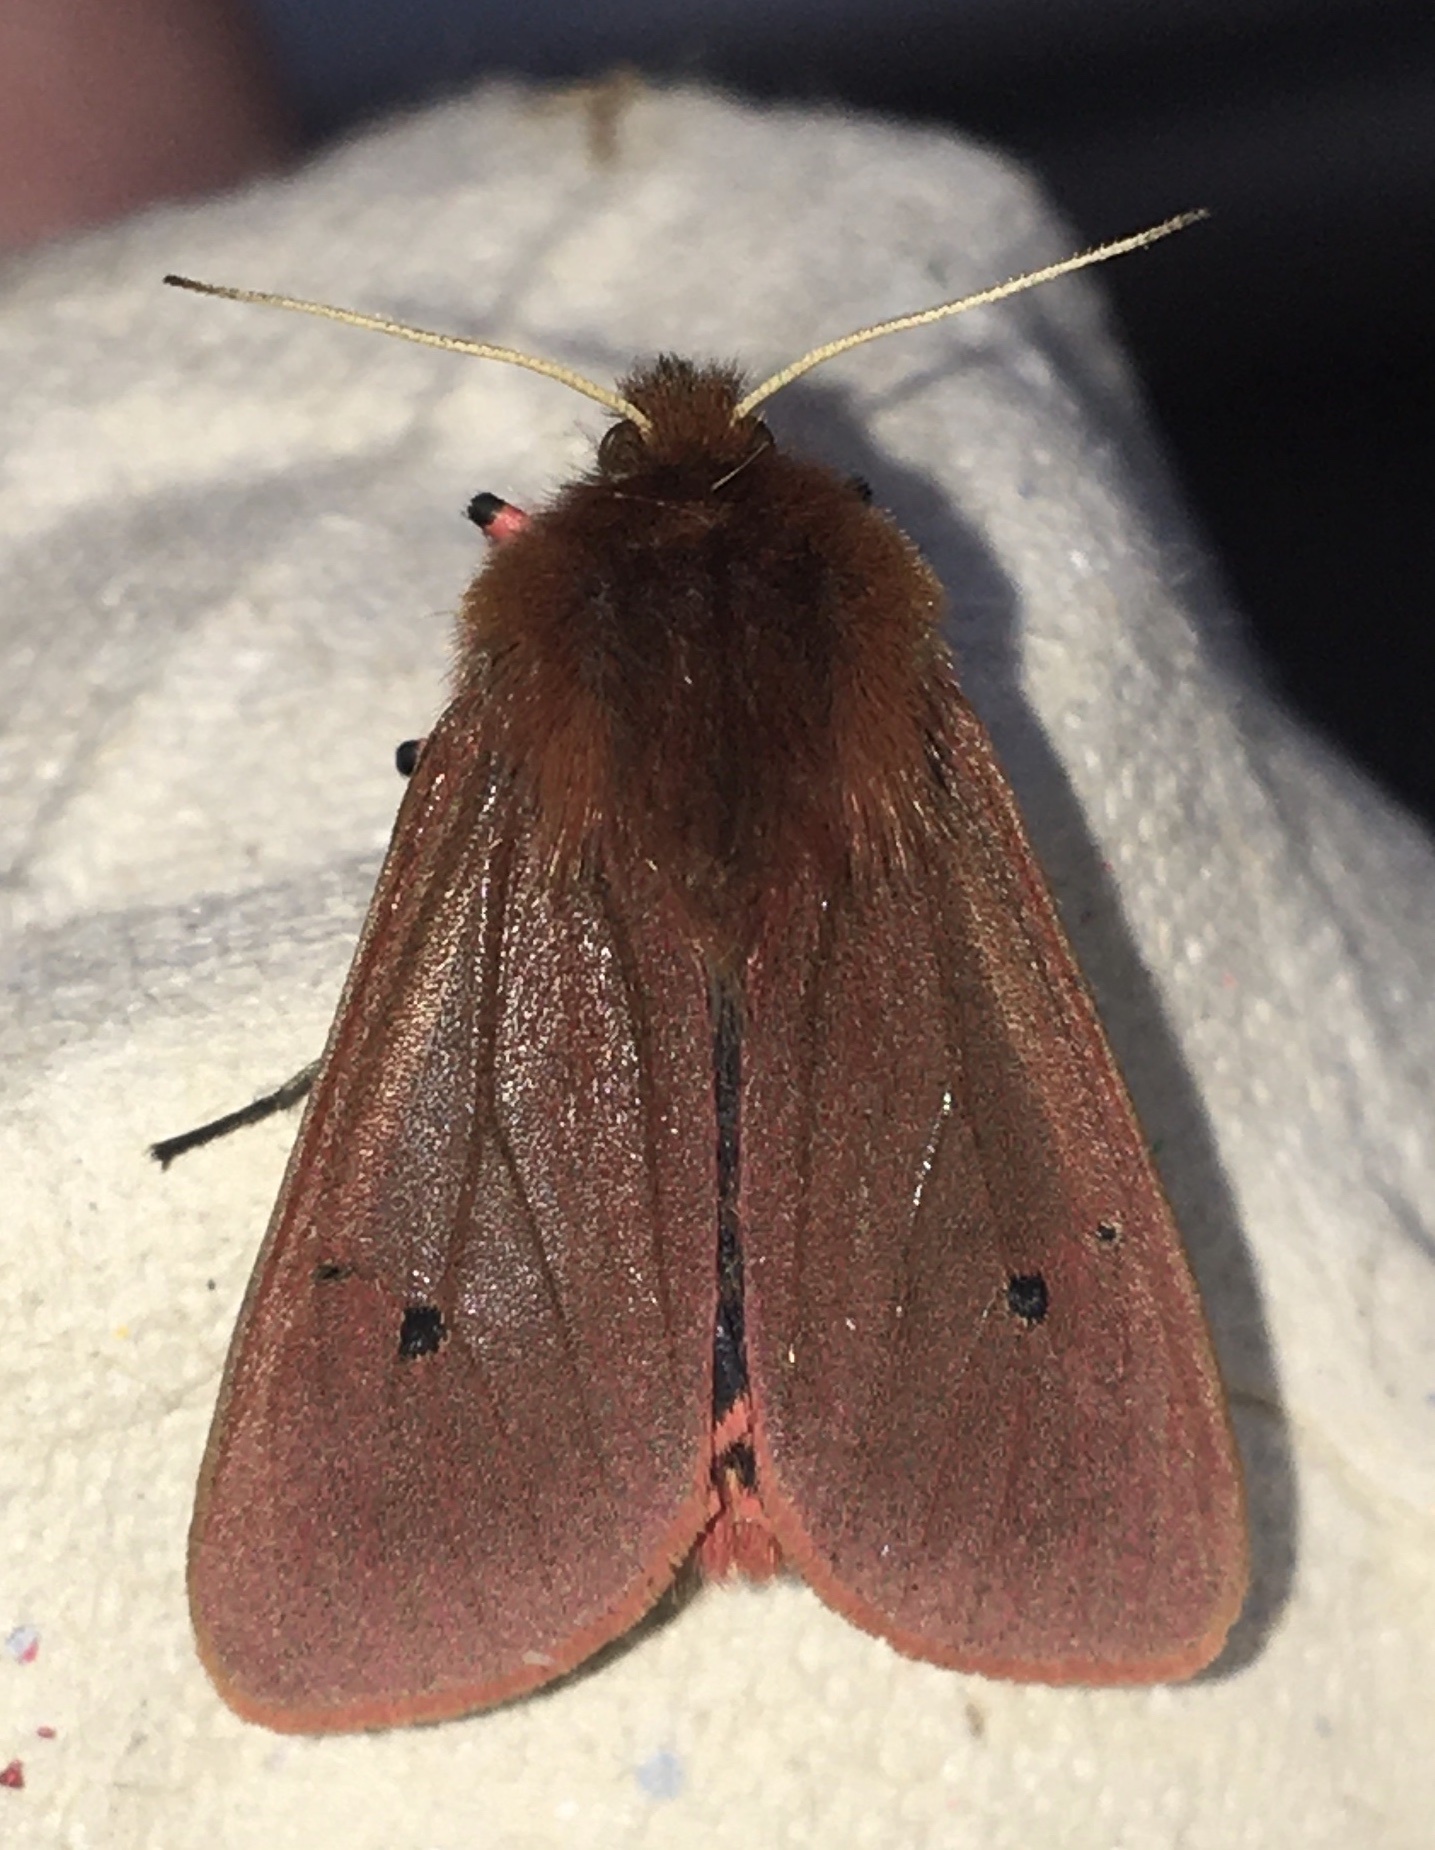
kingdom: Animalia
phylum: Arthropoda
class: Insecta
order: Lepidoptera
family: Erebidae
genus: Phragmatobia
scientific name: Phragmatobia fuliginosa
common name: Ruby tiger
